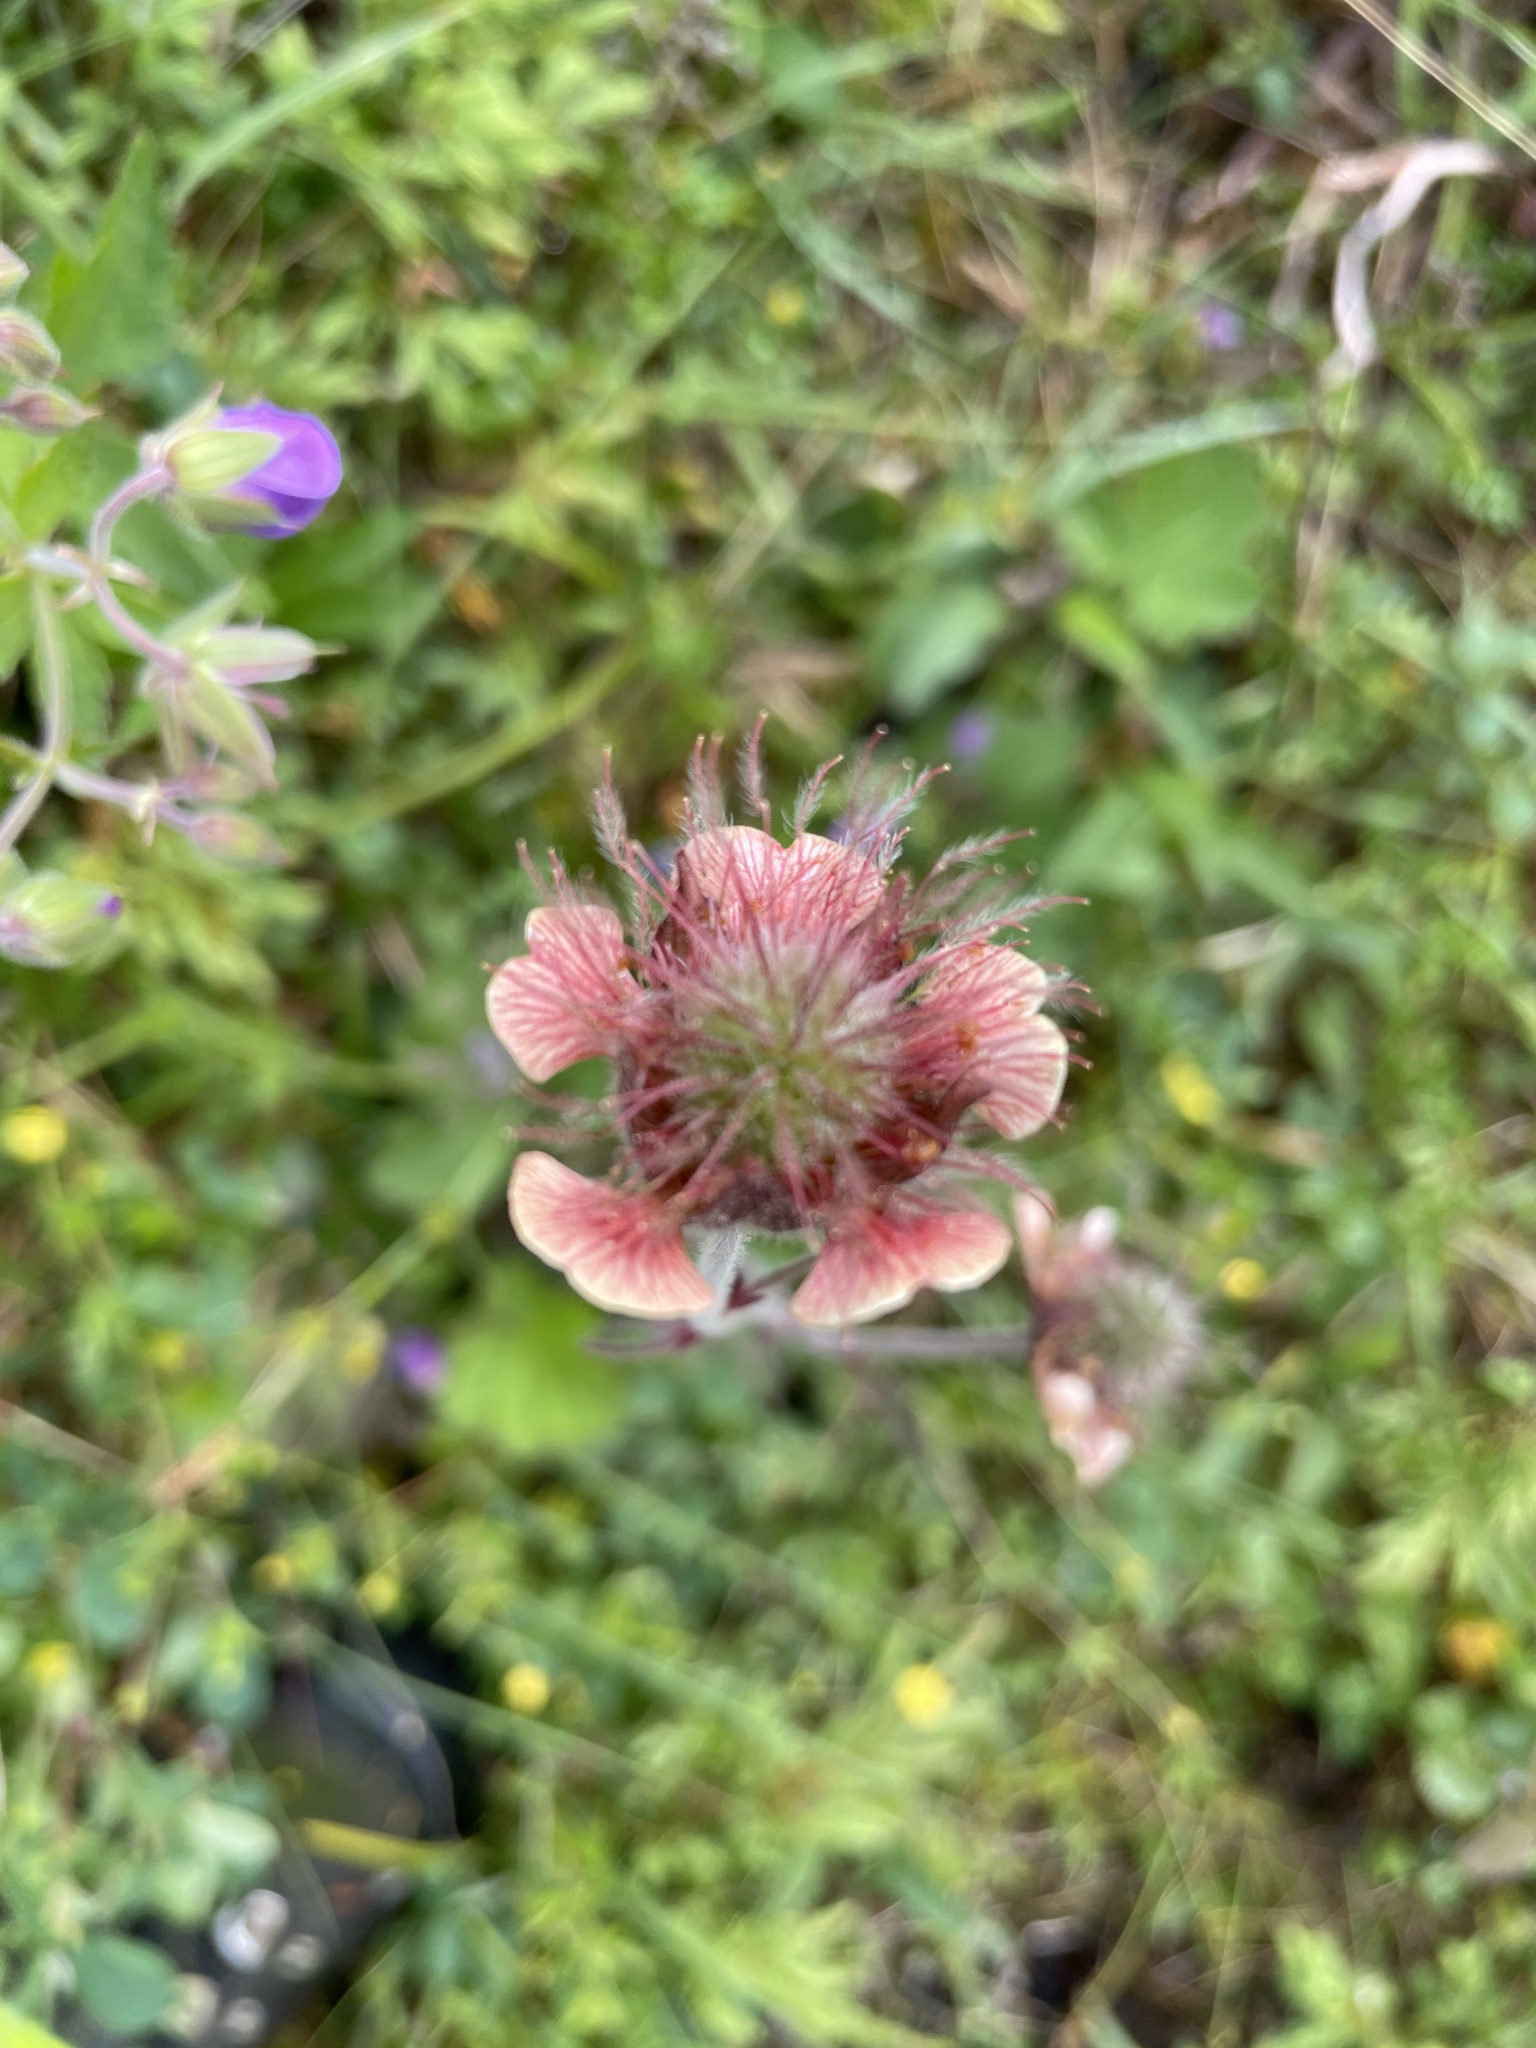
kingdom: Plantae
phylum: Tracheophyta
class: Magnoliopsida
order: Rosales
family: Rosaceae
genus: Geum
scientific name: Geum rivale
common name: Water avens
